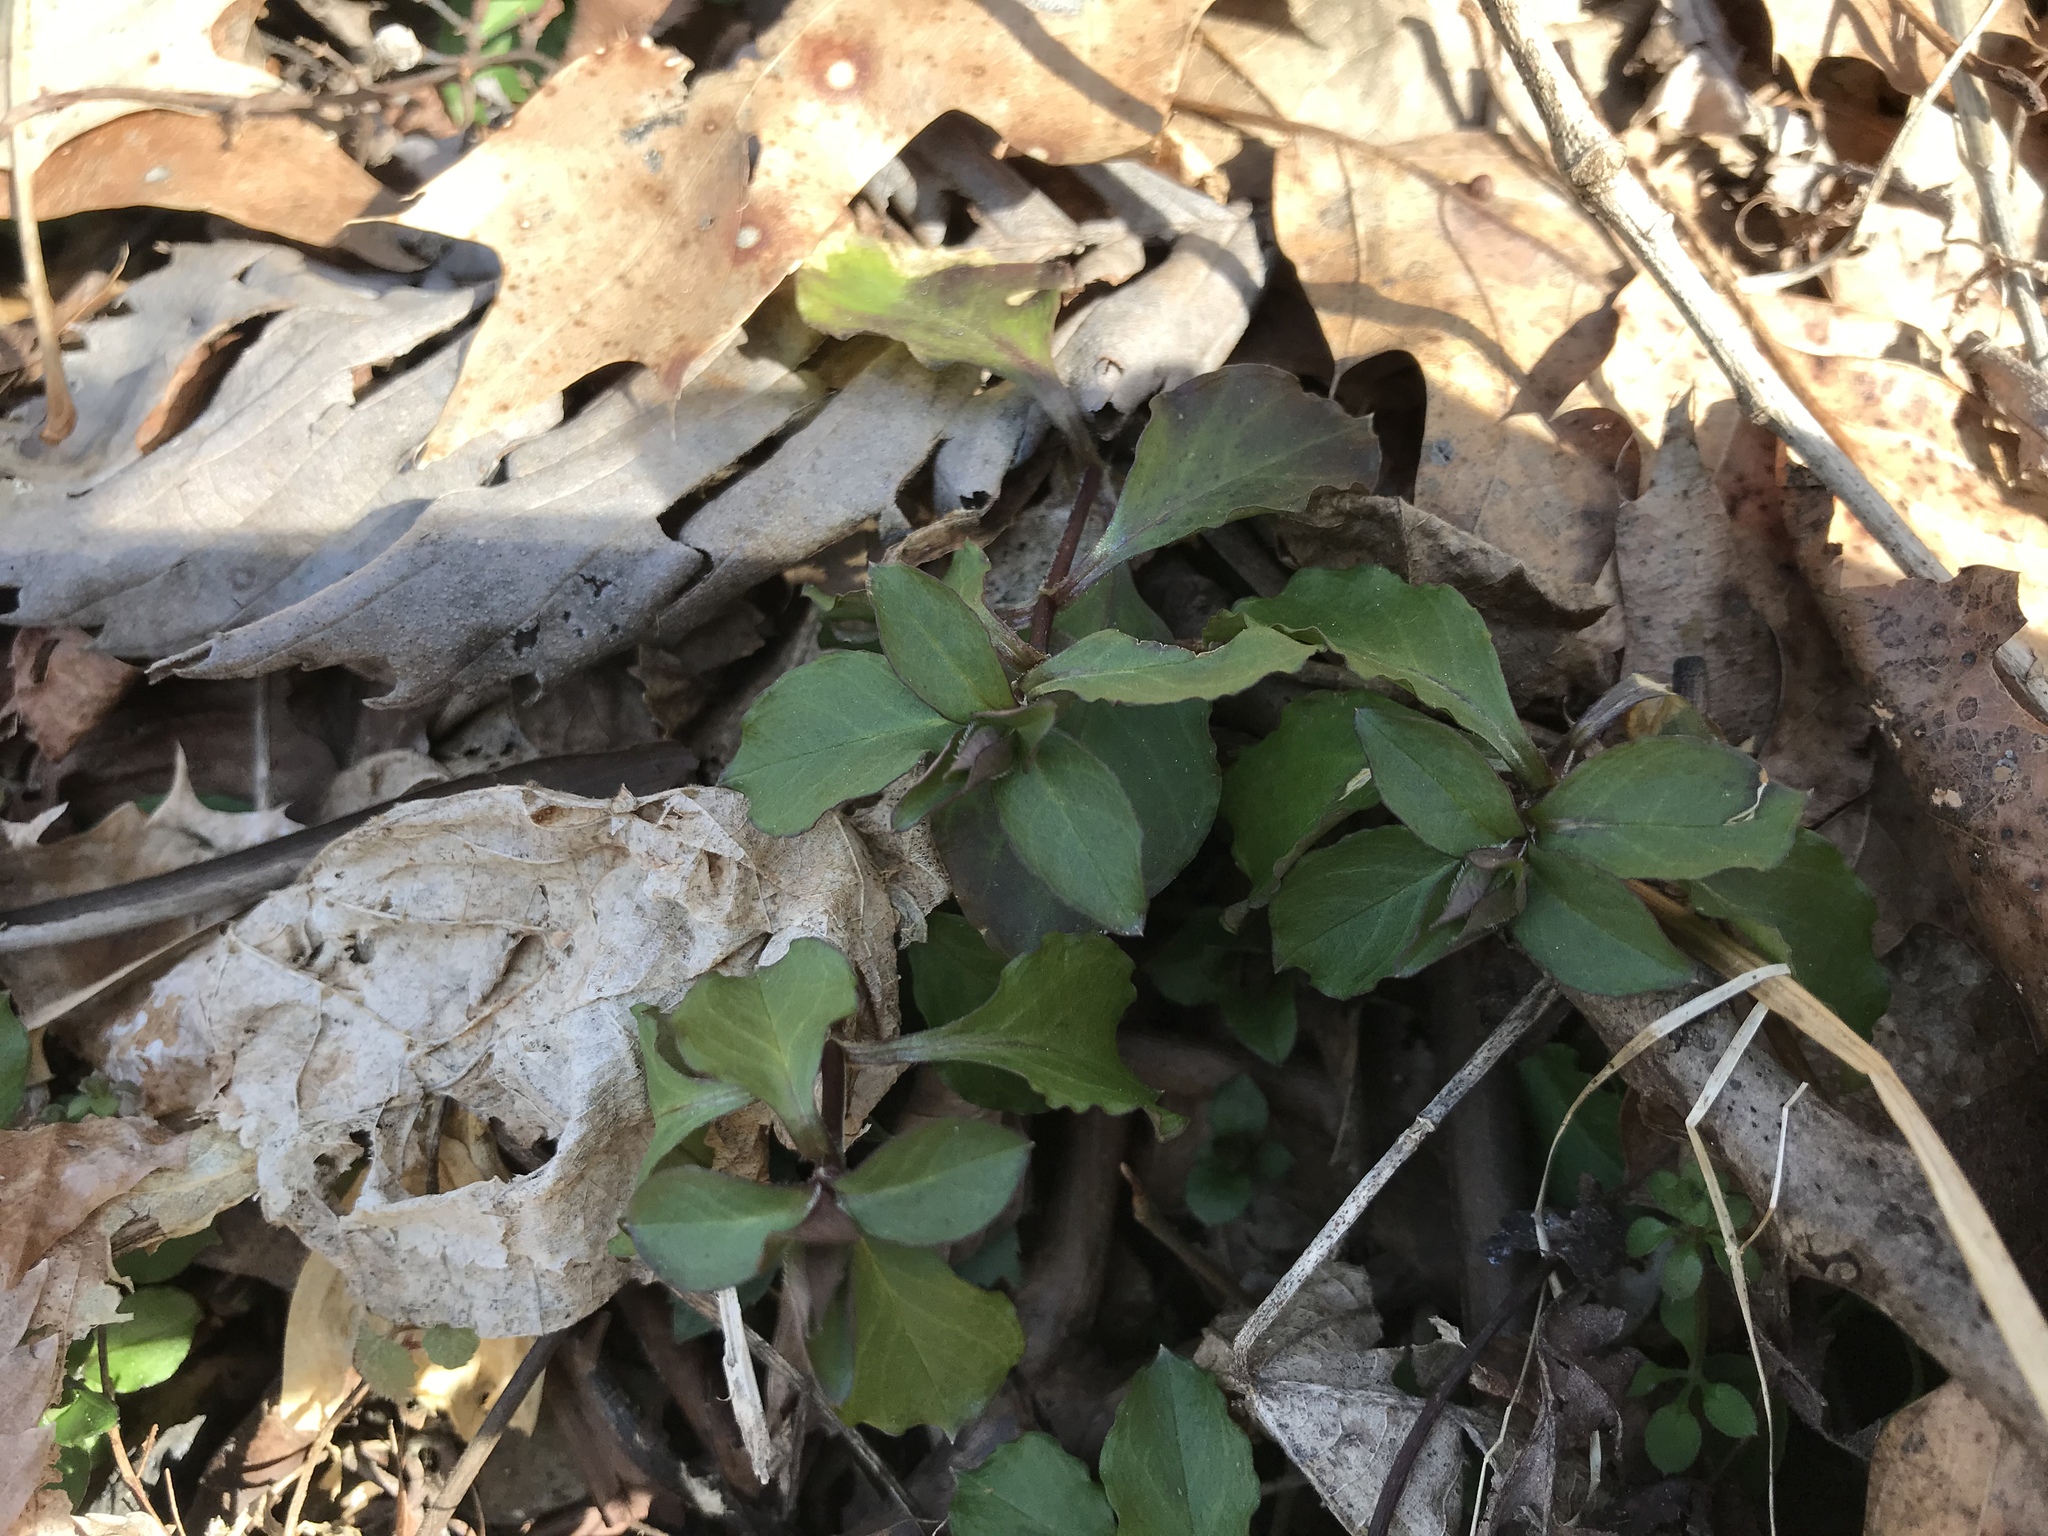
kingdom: Plantae
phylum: Tracheophyta
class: Magnoliopsida
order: Caryophyllales
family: Caryophyllaceae
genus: Stellaria
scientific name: Stellaria pubera
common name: Star chickweed
